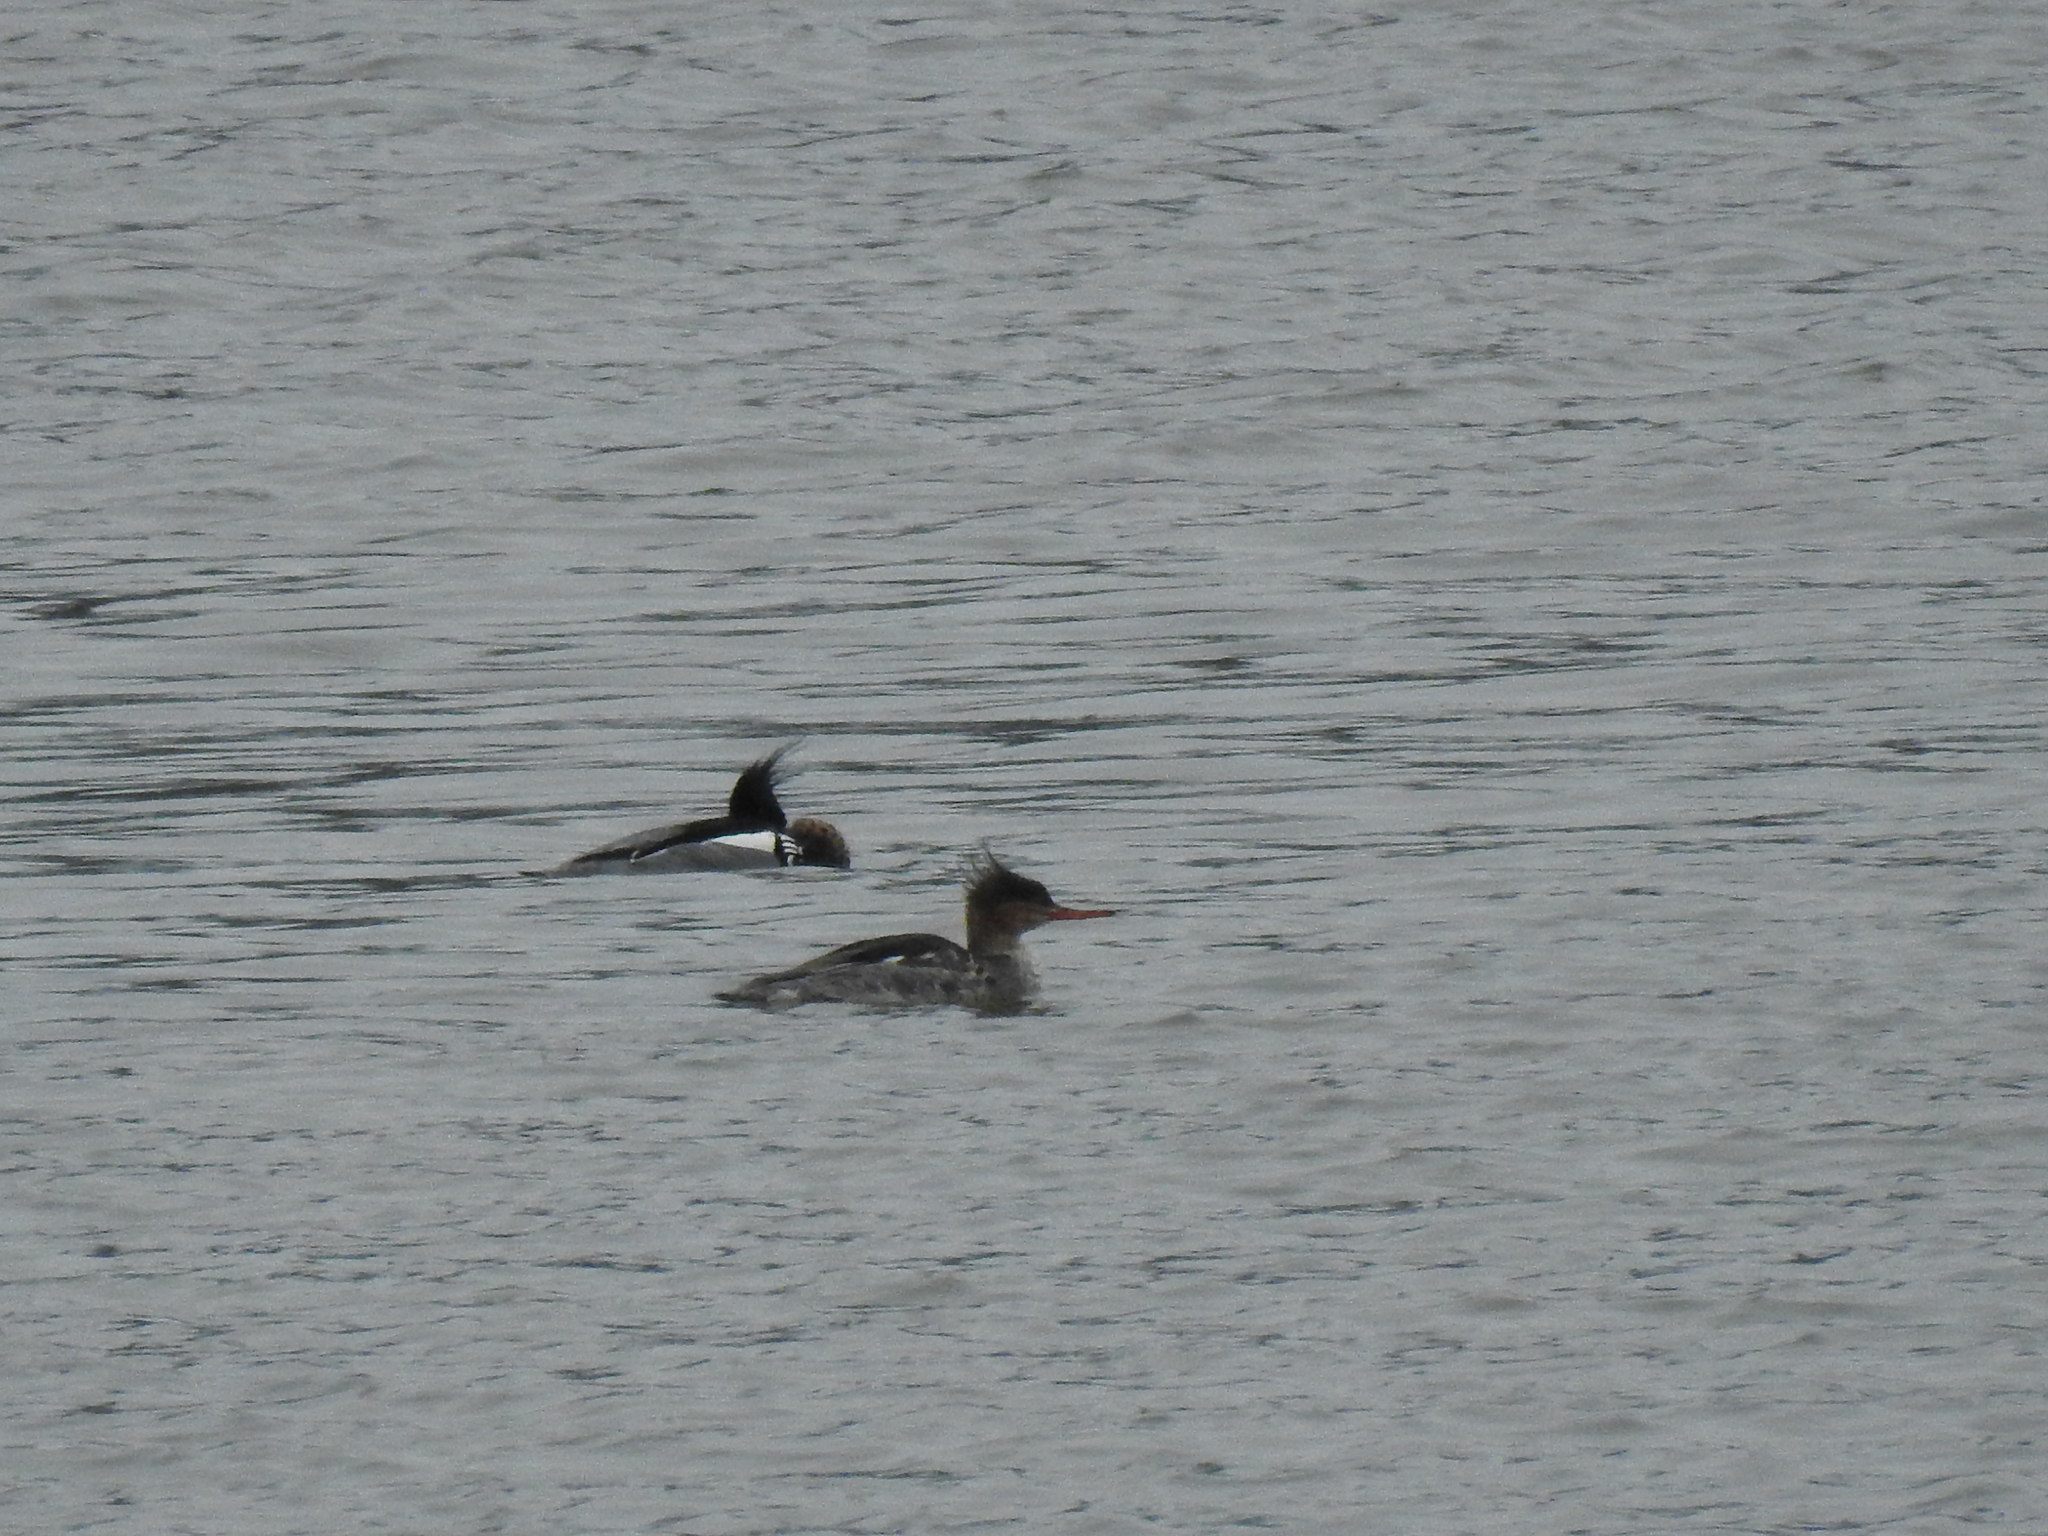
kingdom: Animalia
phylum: Chordata
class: Aves
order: Anseriformes
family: Anatidae
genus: Mergus
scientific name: Mergus serrator
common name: Red-breasted merganser
